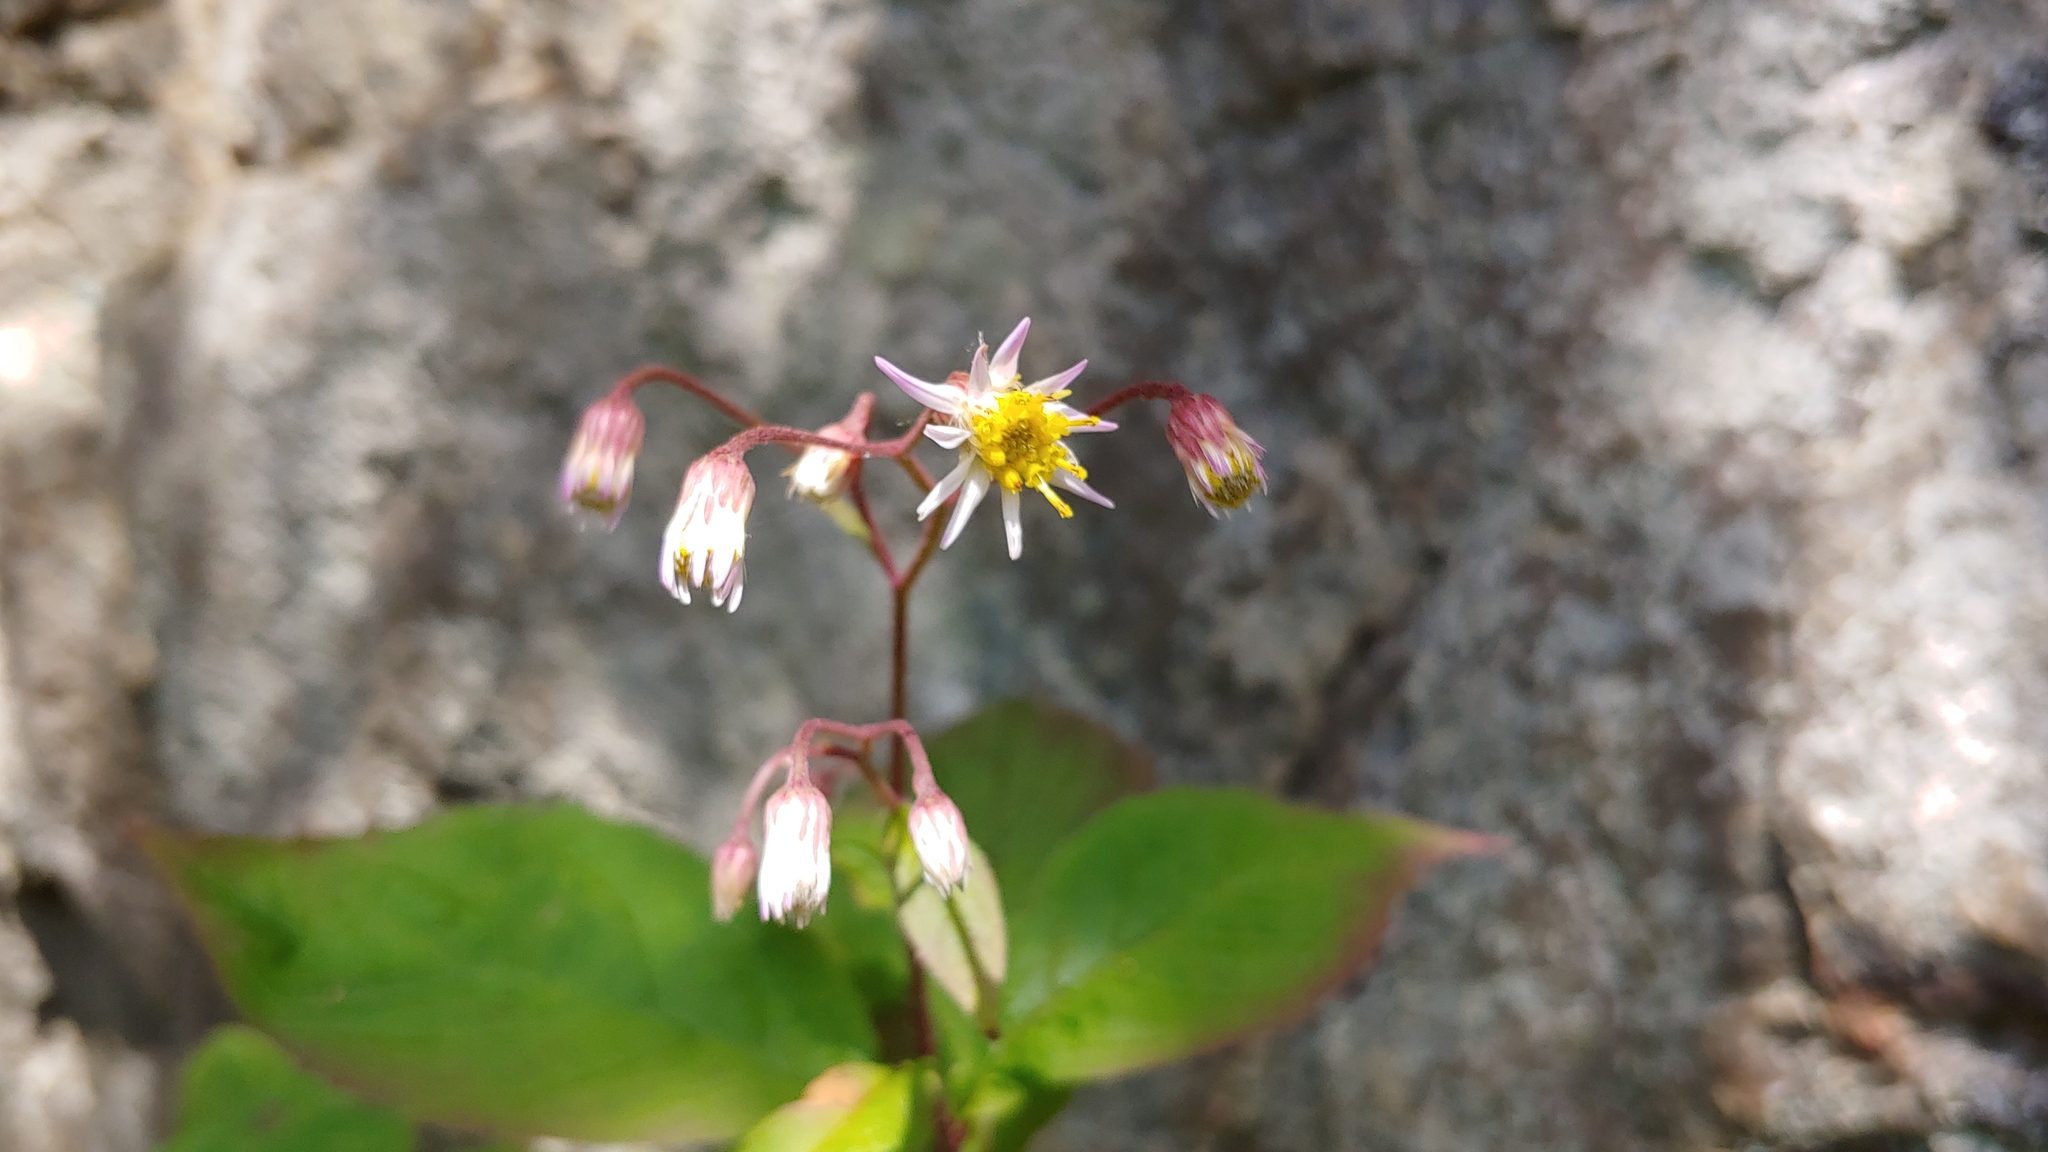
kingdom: Plantae
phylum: Tracheophyta
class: Magnoliopsida
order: Asterales
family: Asteraceae
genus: Oclemena
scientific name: Oclemena acuminata
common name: Mountain aster
